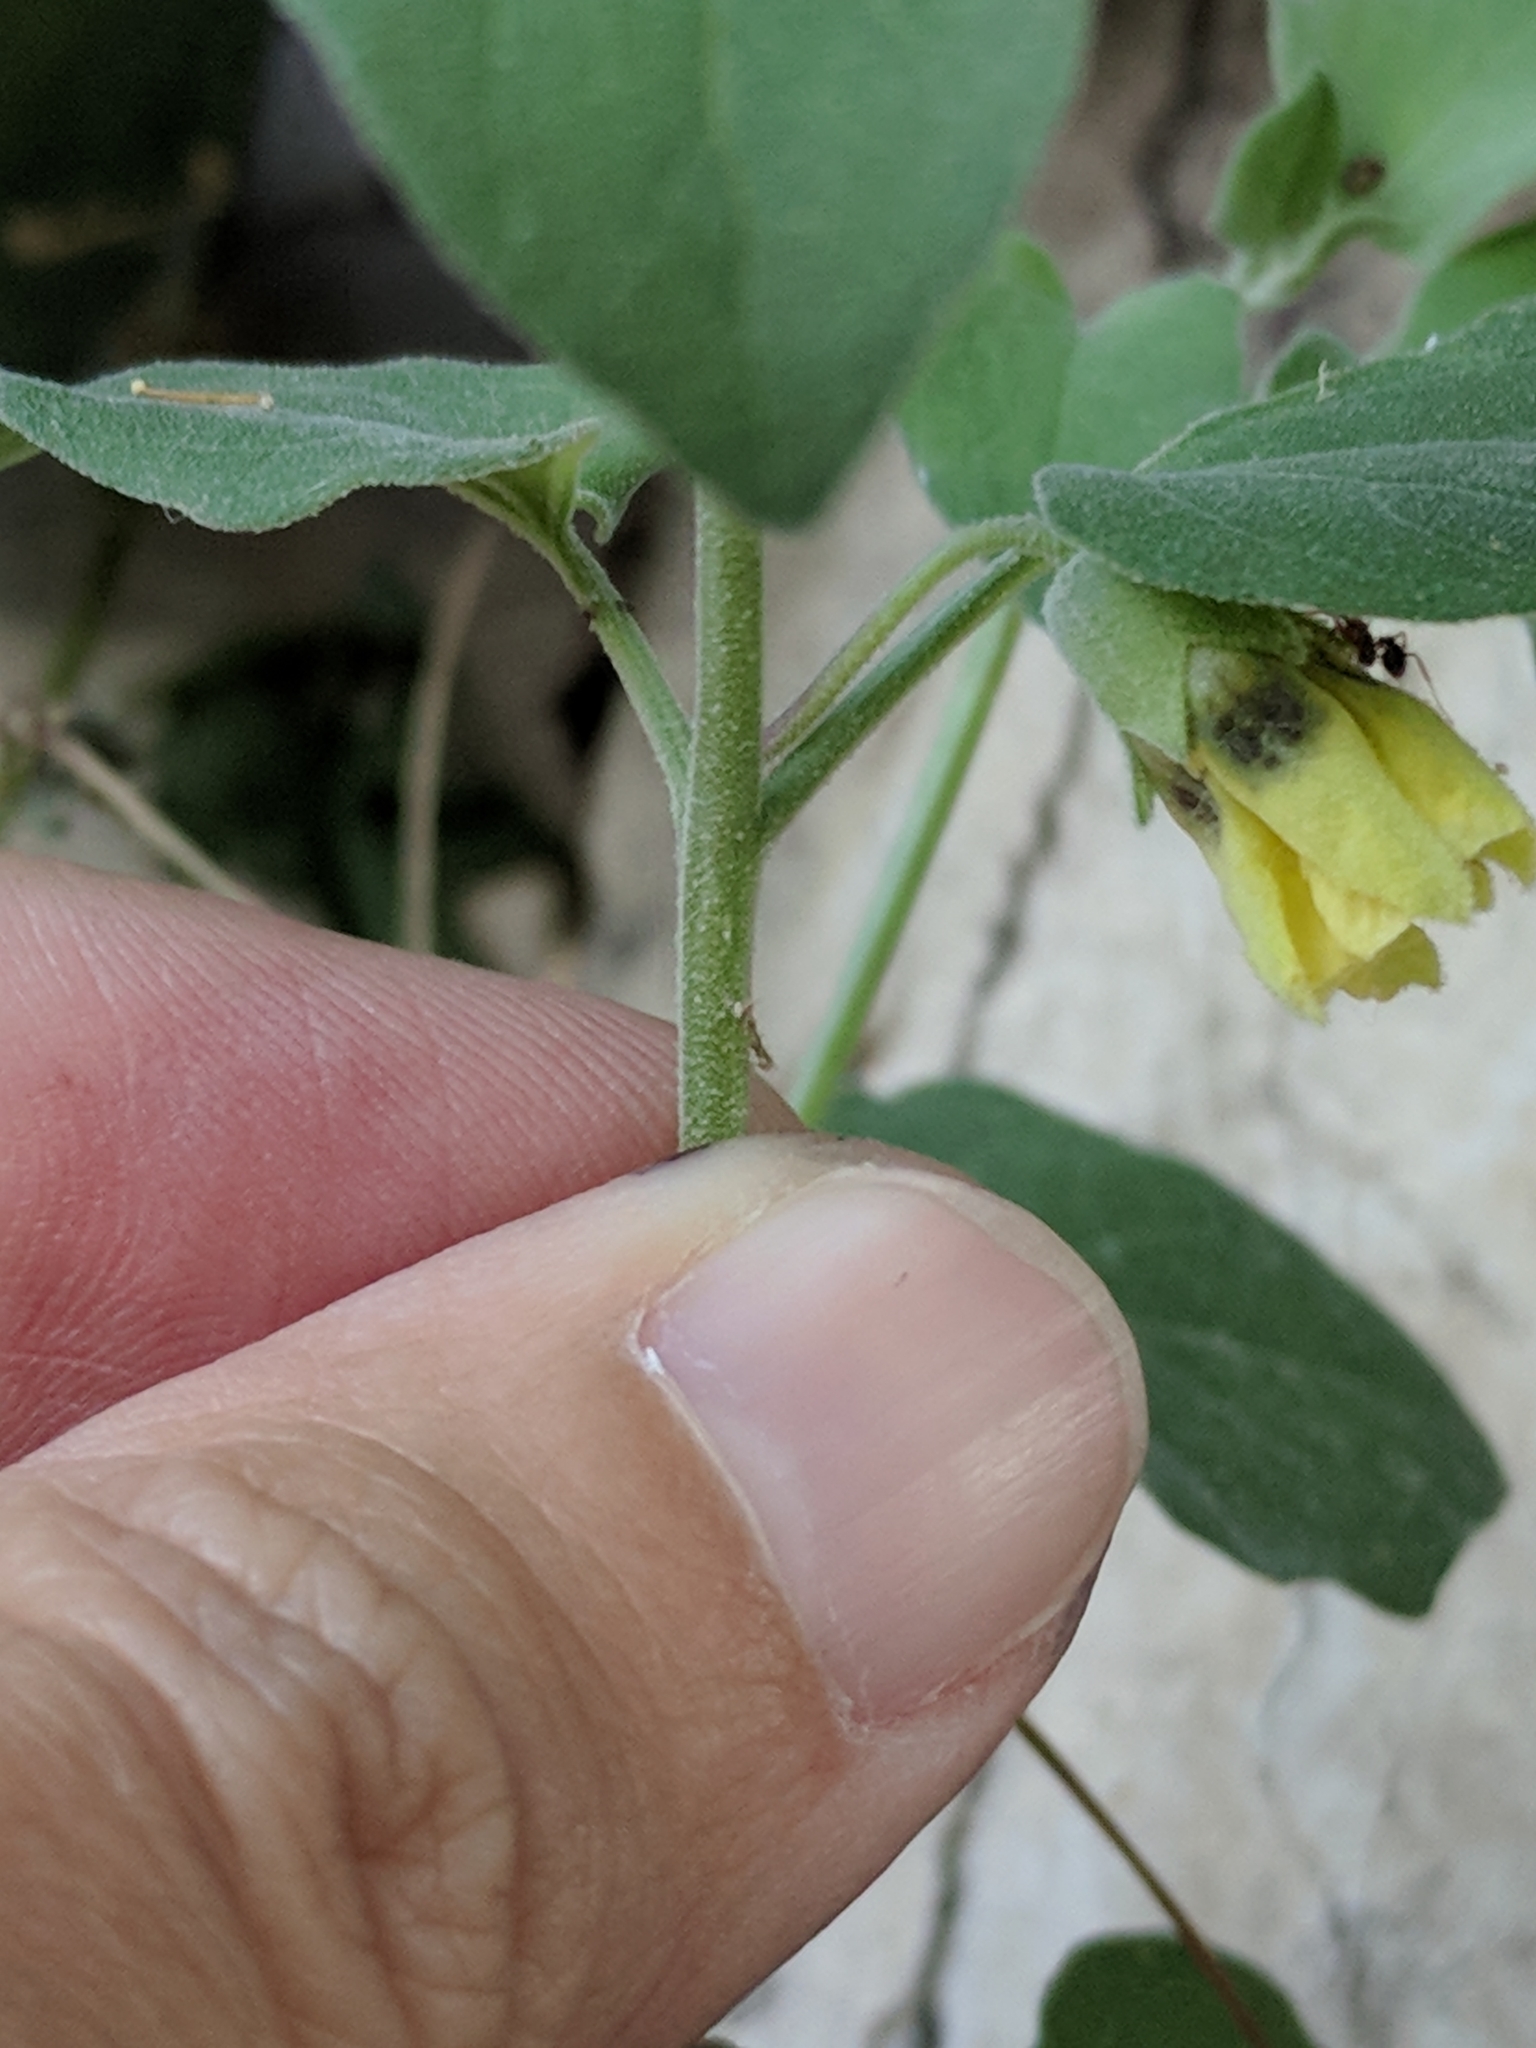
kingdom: Plantae
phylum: Tracheophyta
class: Magnoliopsida
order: Solanales
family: Solanaceae
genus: Physalis
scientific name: Physalis cinerascens
